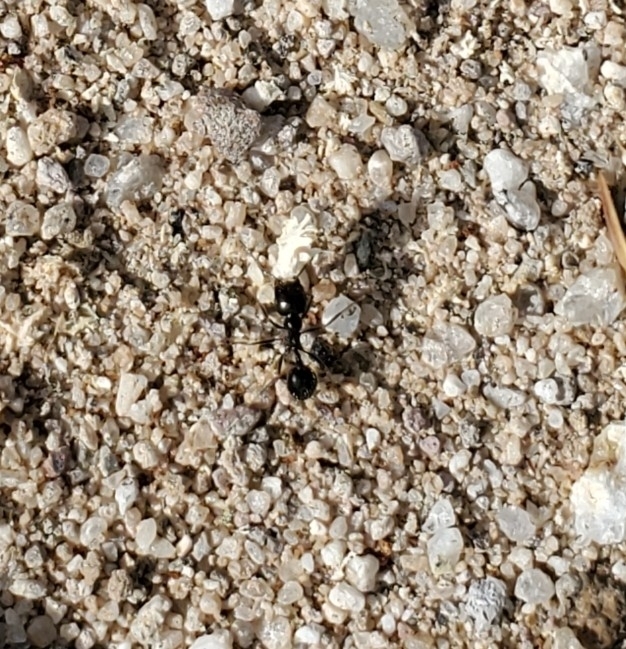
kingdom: Animalia
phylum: Arthropoda
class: Insecta
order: Hymenoptera
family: Formicidae
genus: Messor
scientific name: Messor pergandei
